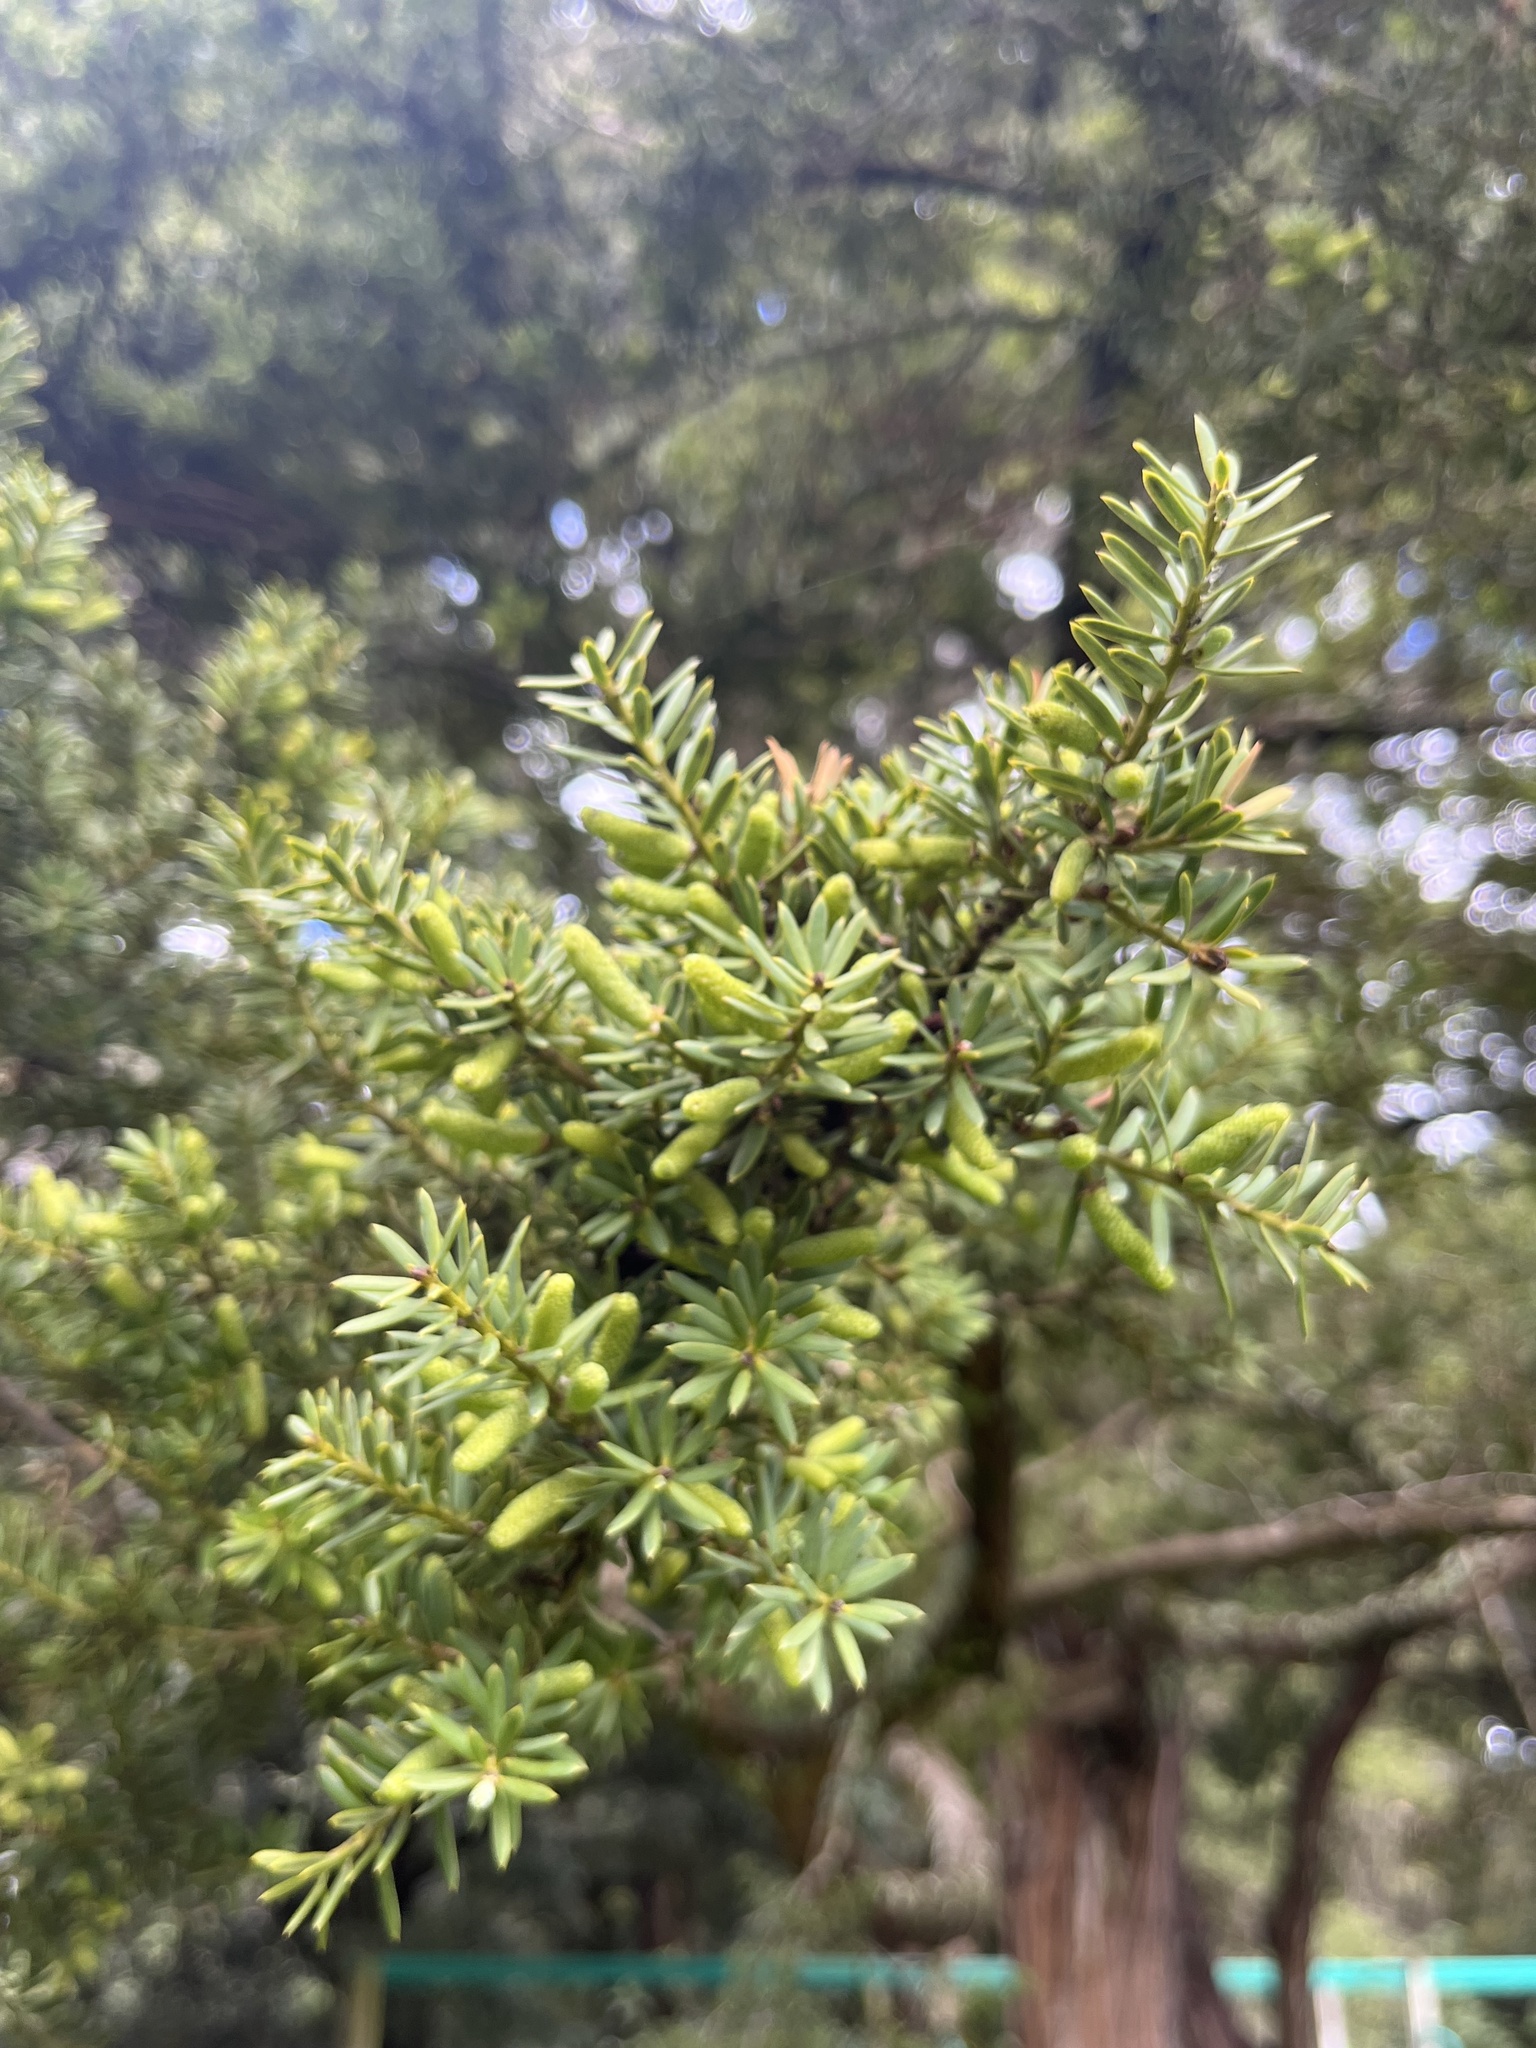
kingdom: Plantae
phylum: Tracheophyta
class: Pinopsida
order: Pinales
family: Podocarpaceae
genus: Podocarpus
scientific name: Podocarpus totara
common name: Totara
